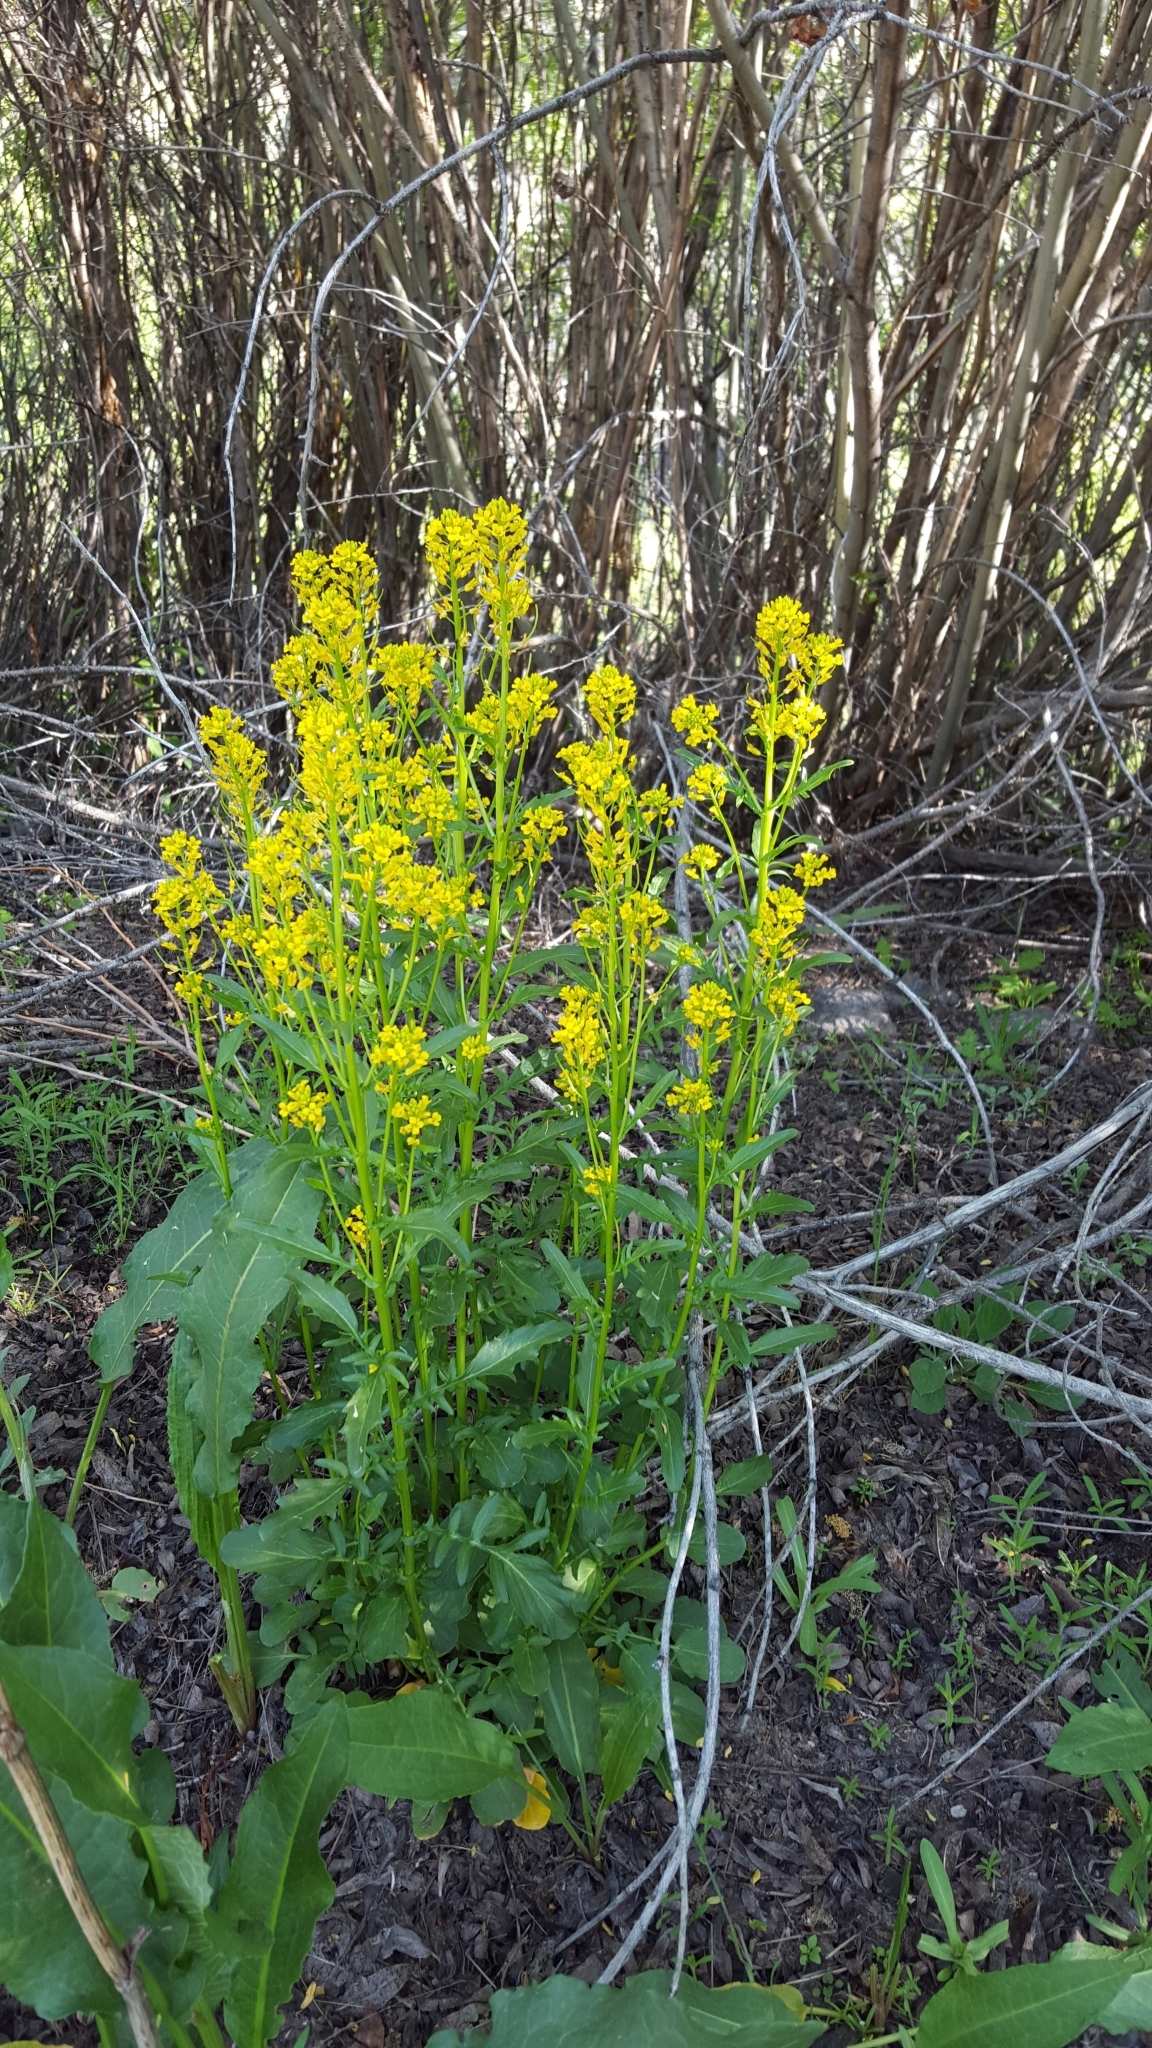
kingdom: Plantae
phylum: Tracheophyta
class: Magnoliopsida
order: Brassicales
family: Brassicaceae
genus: Barbarea
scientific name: Barbarea orthoceras
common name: American wintercress
